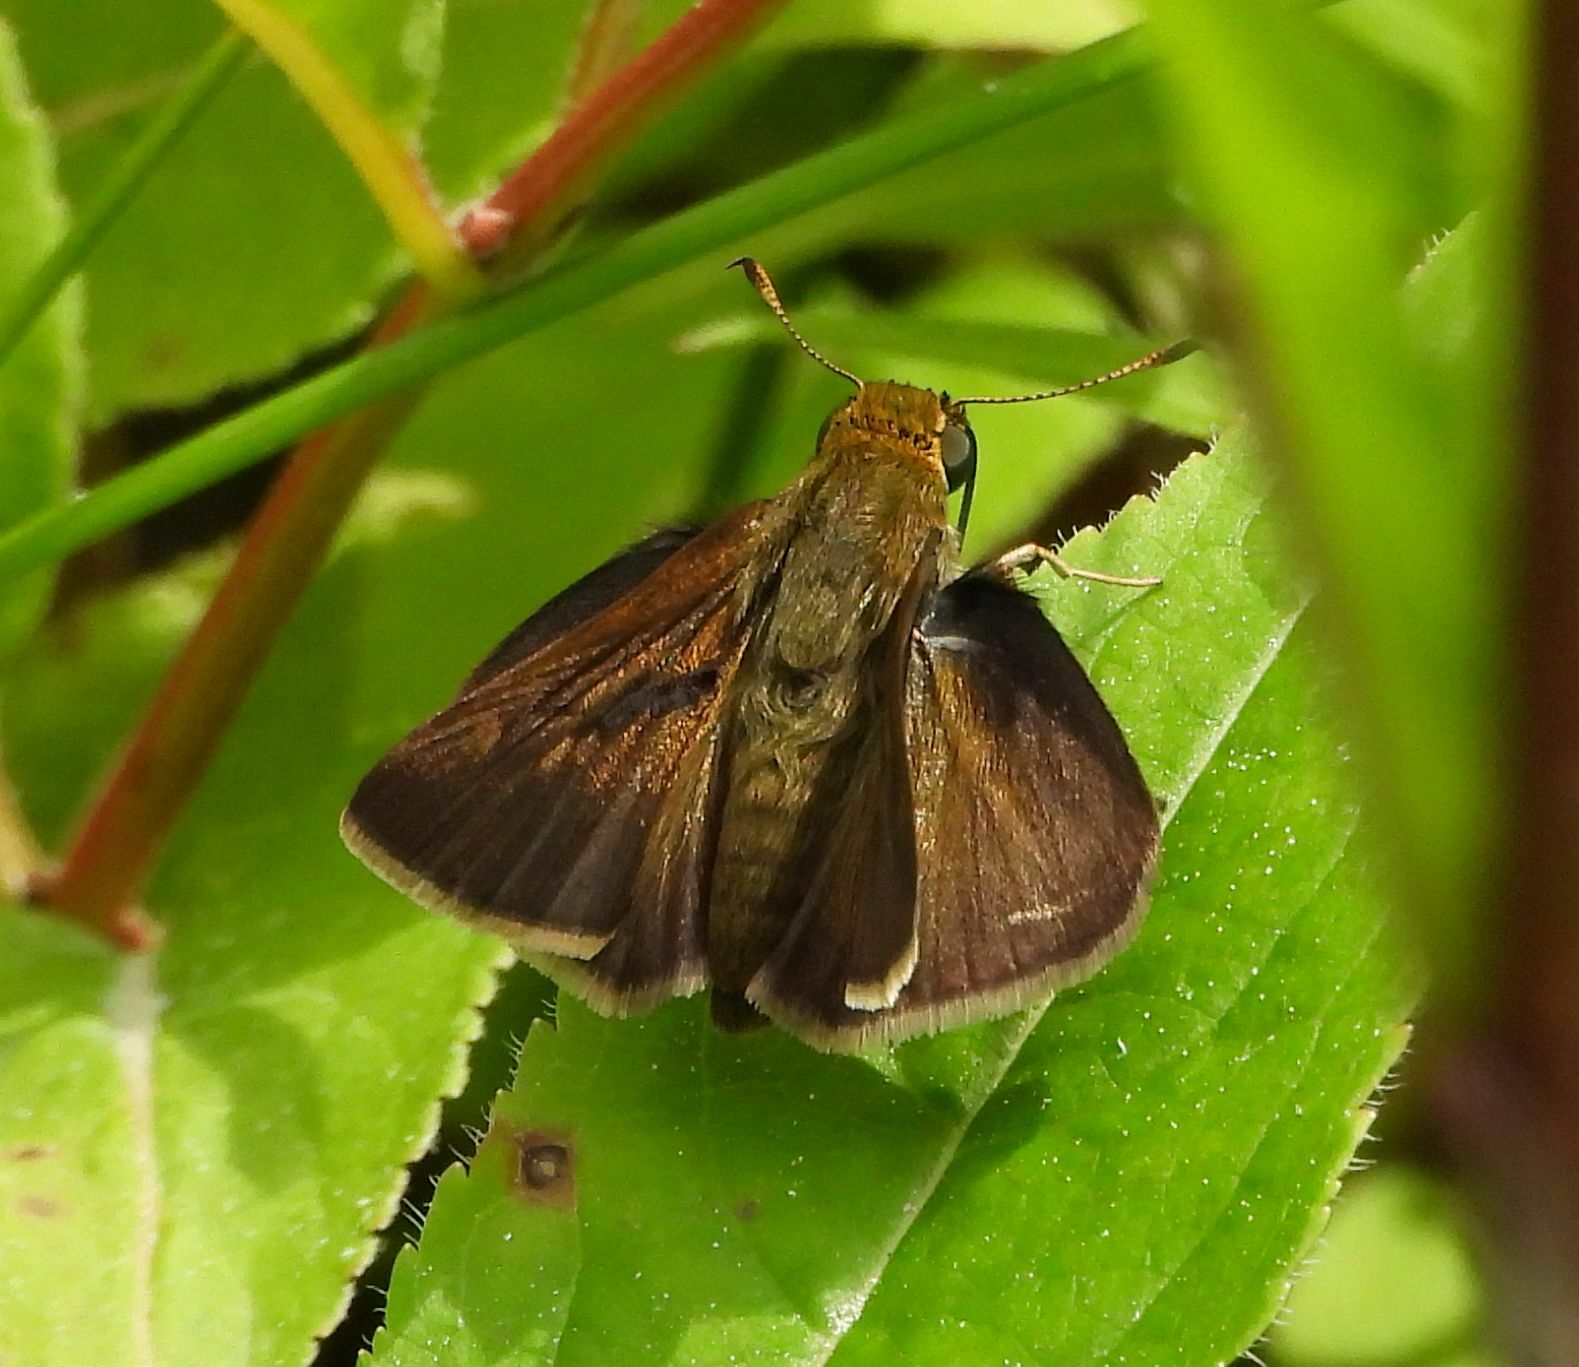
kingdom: Animalia
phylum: Arthropoda
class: Insecta
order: Lepidoptera
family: Hesperiidae
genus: Euphyes
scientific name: Euphyes vestris
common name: Dun skipper
